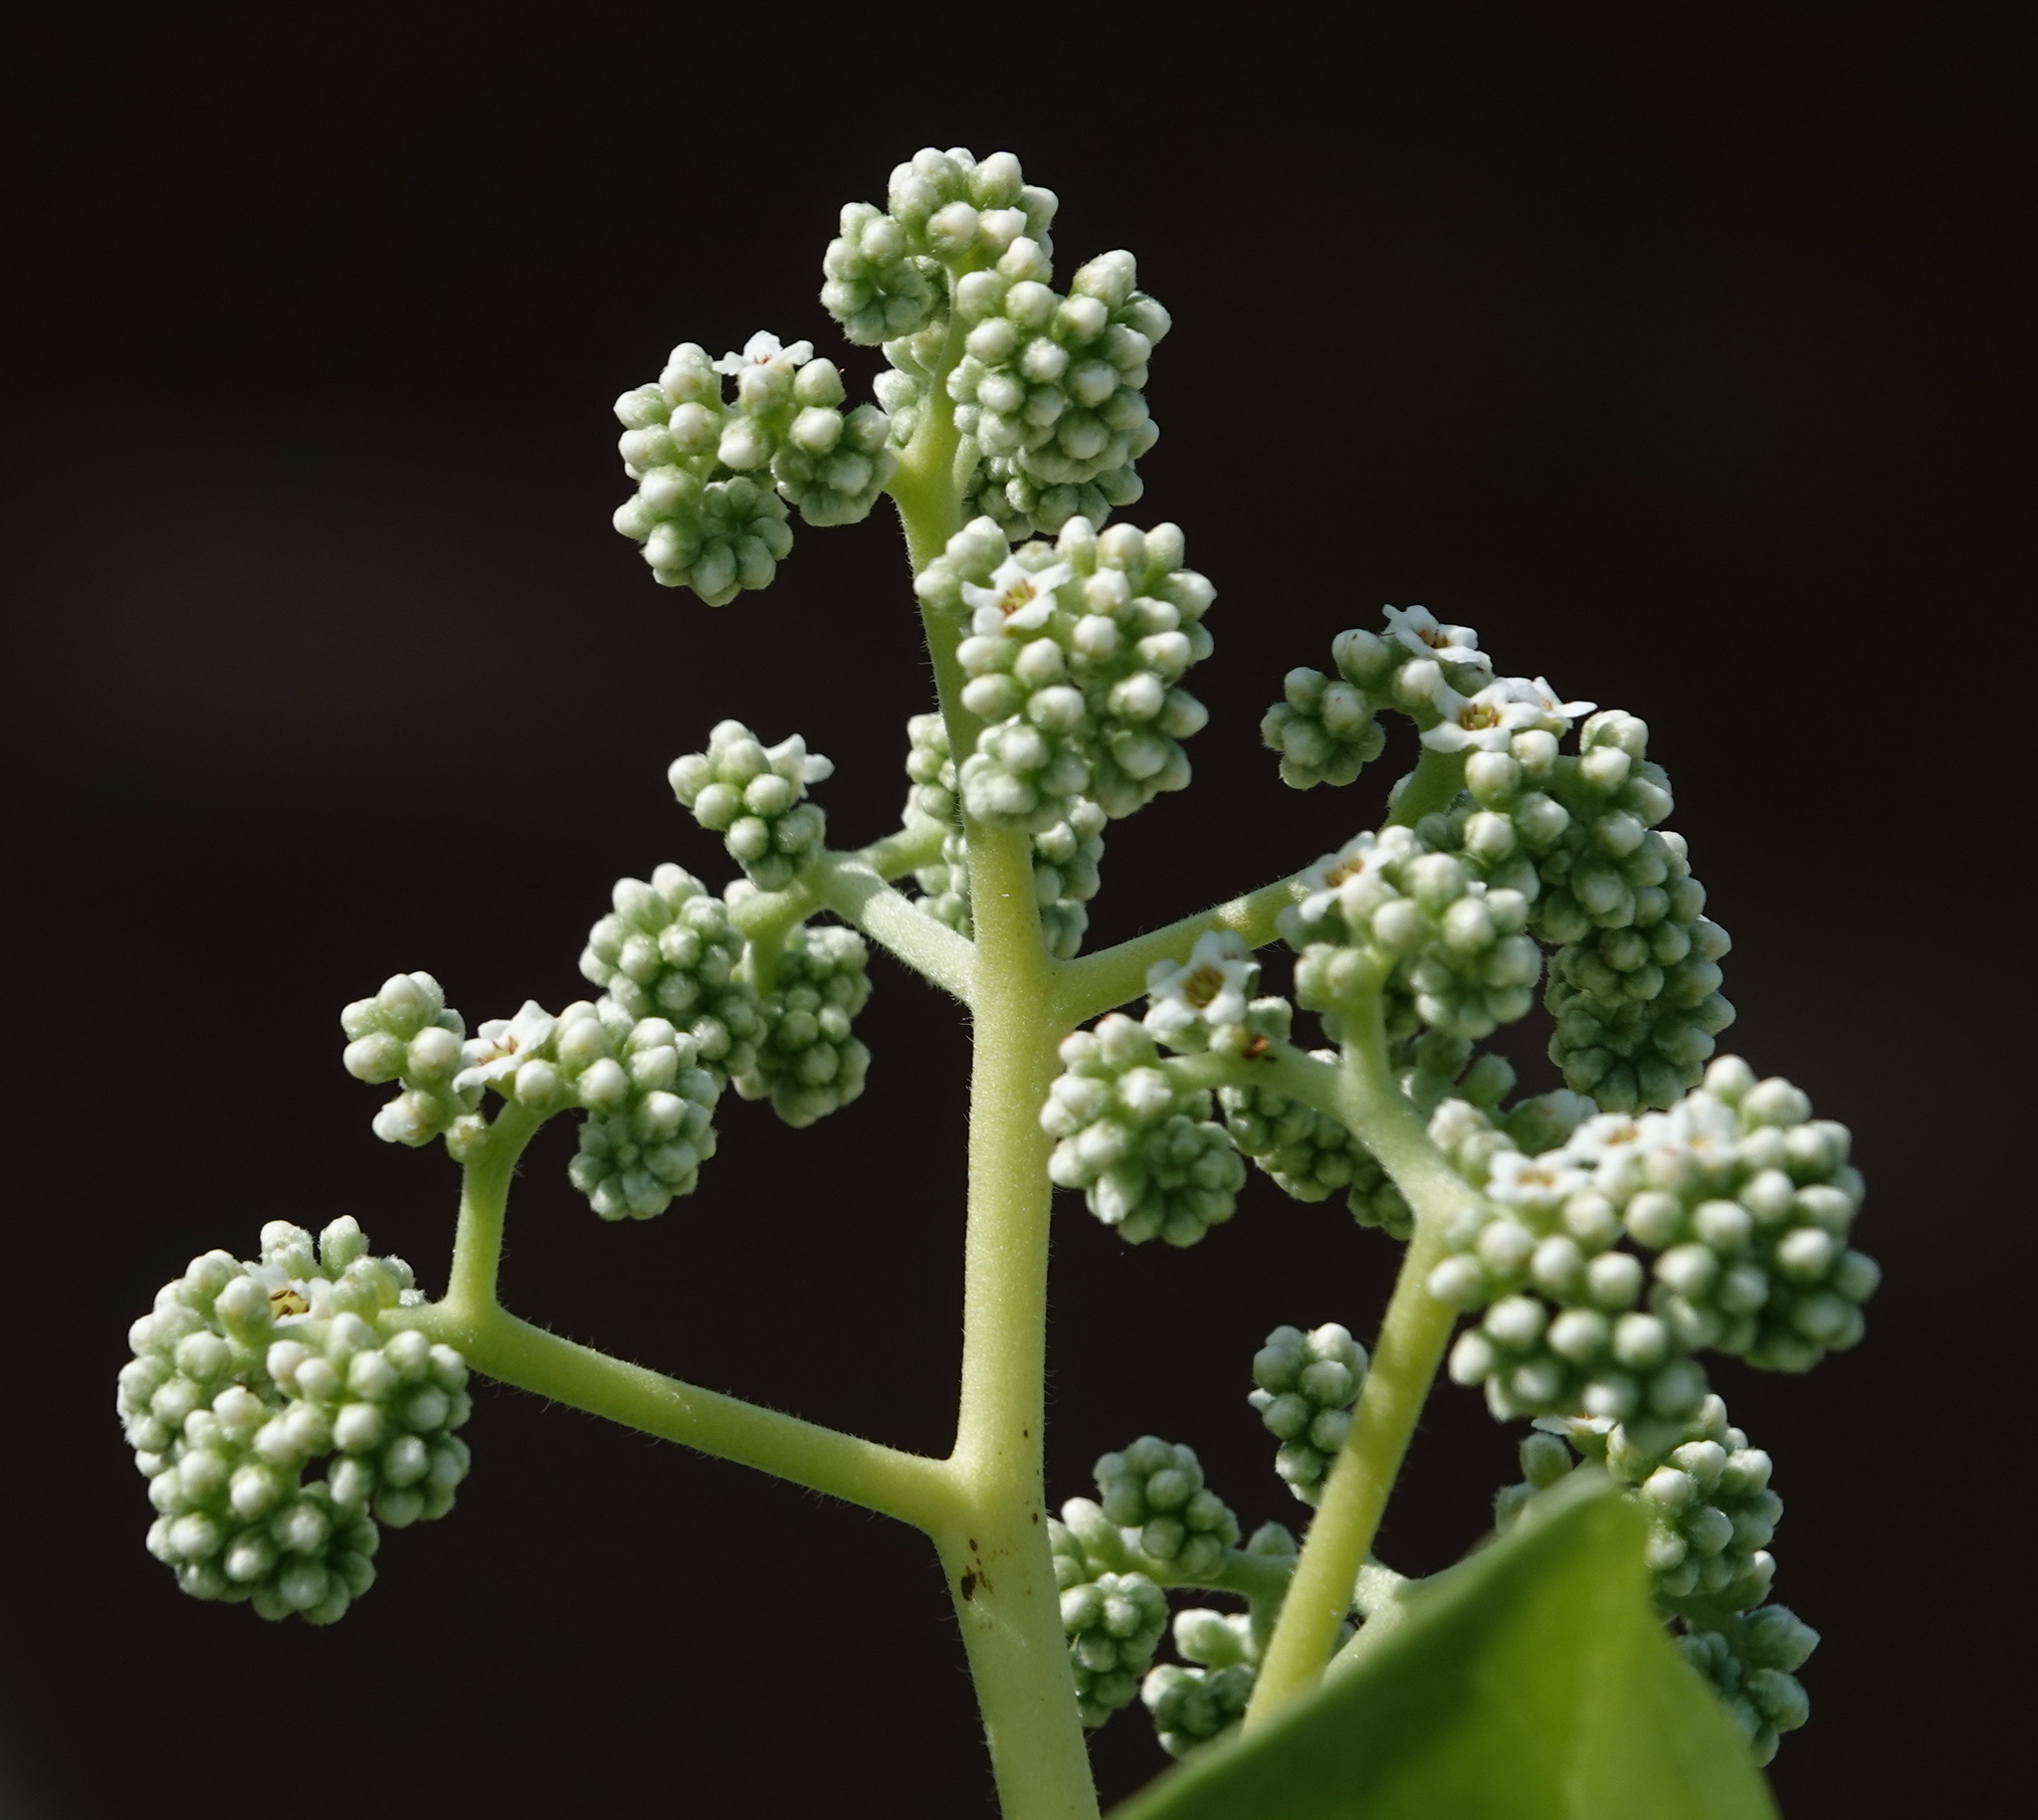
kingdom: Plantae
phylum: Tracheophyta
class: Magnoliopsida
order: Boraginales
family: Heliotropiaceae
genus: Heliotropium
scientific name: Heliotropium velutinum
